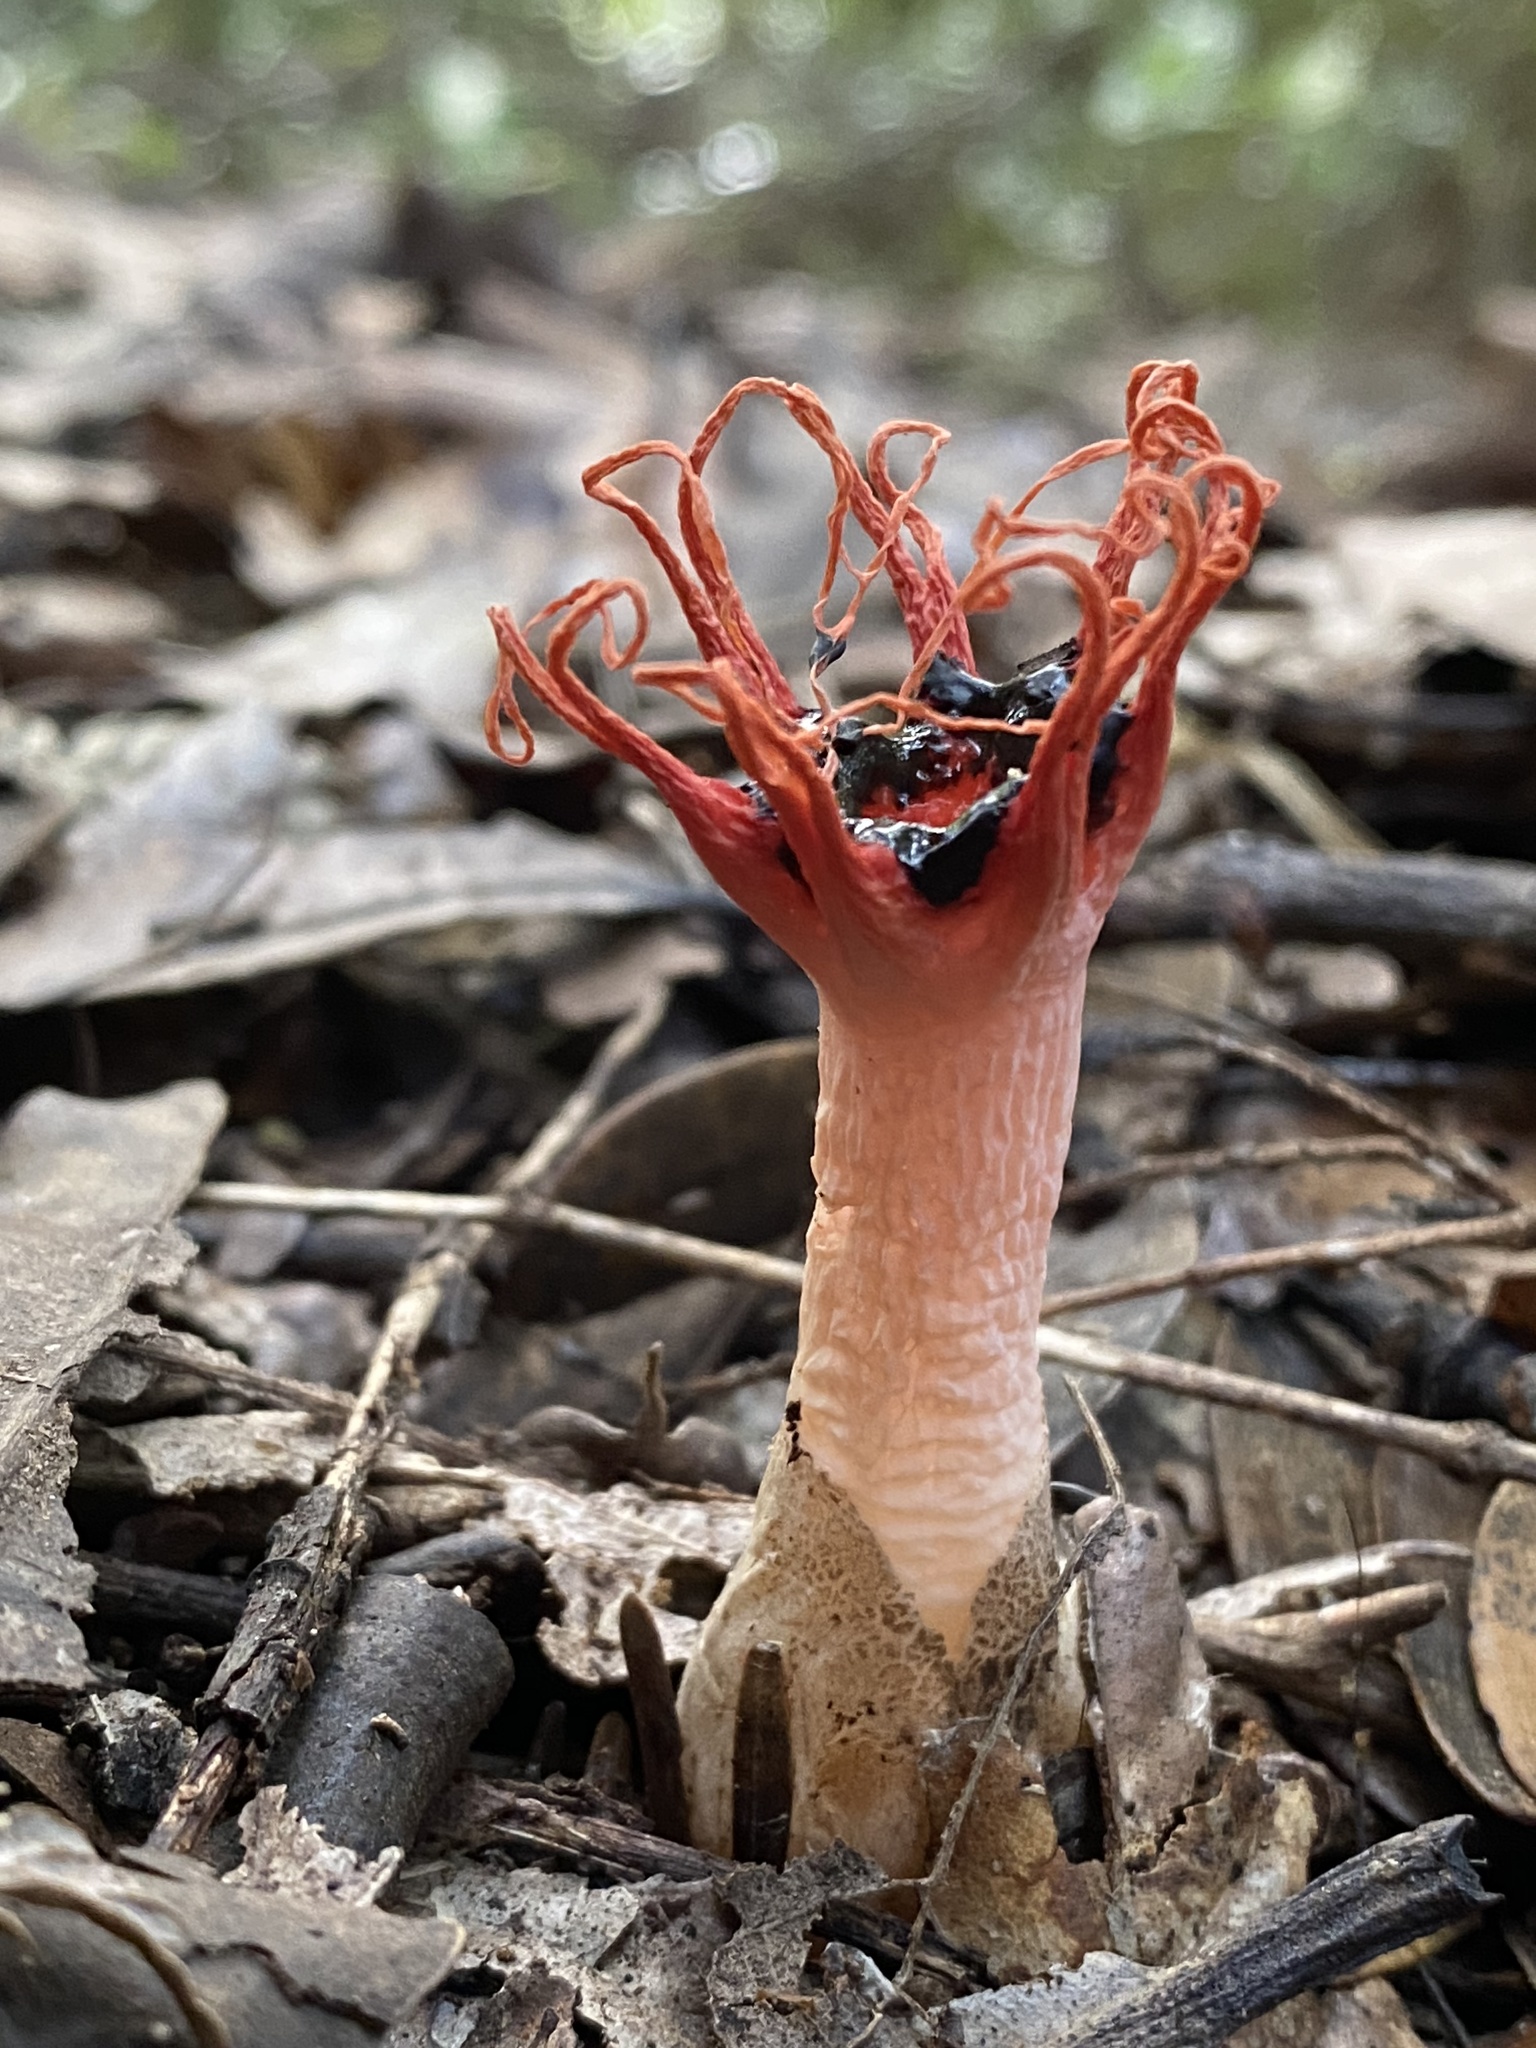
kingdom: Fungi
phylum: Basidiomycota
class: Agaricomycetes
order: Phallales
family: Phallaceae
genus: Aseroe
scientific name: Aseroe rubra
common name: Starfish fungus
